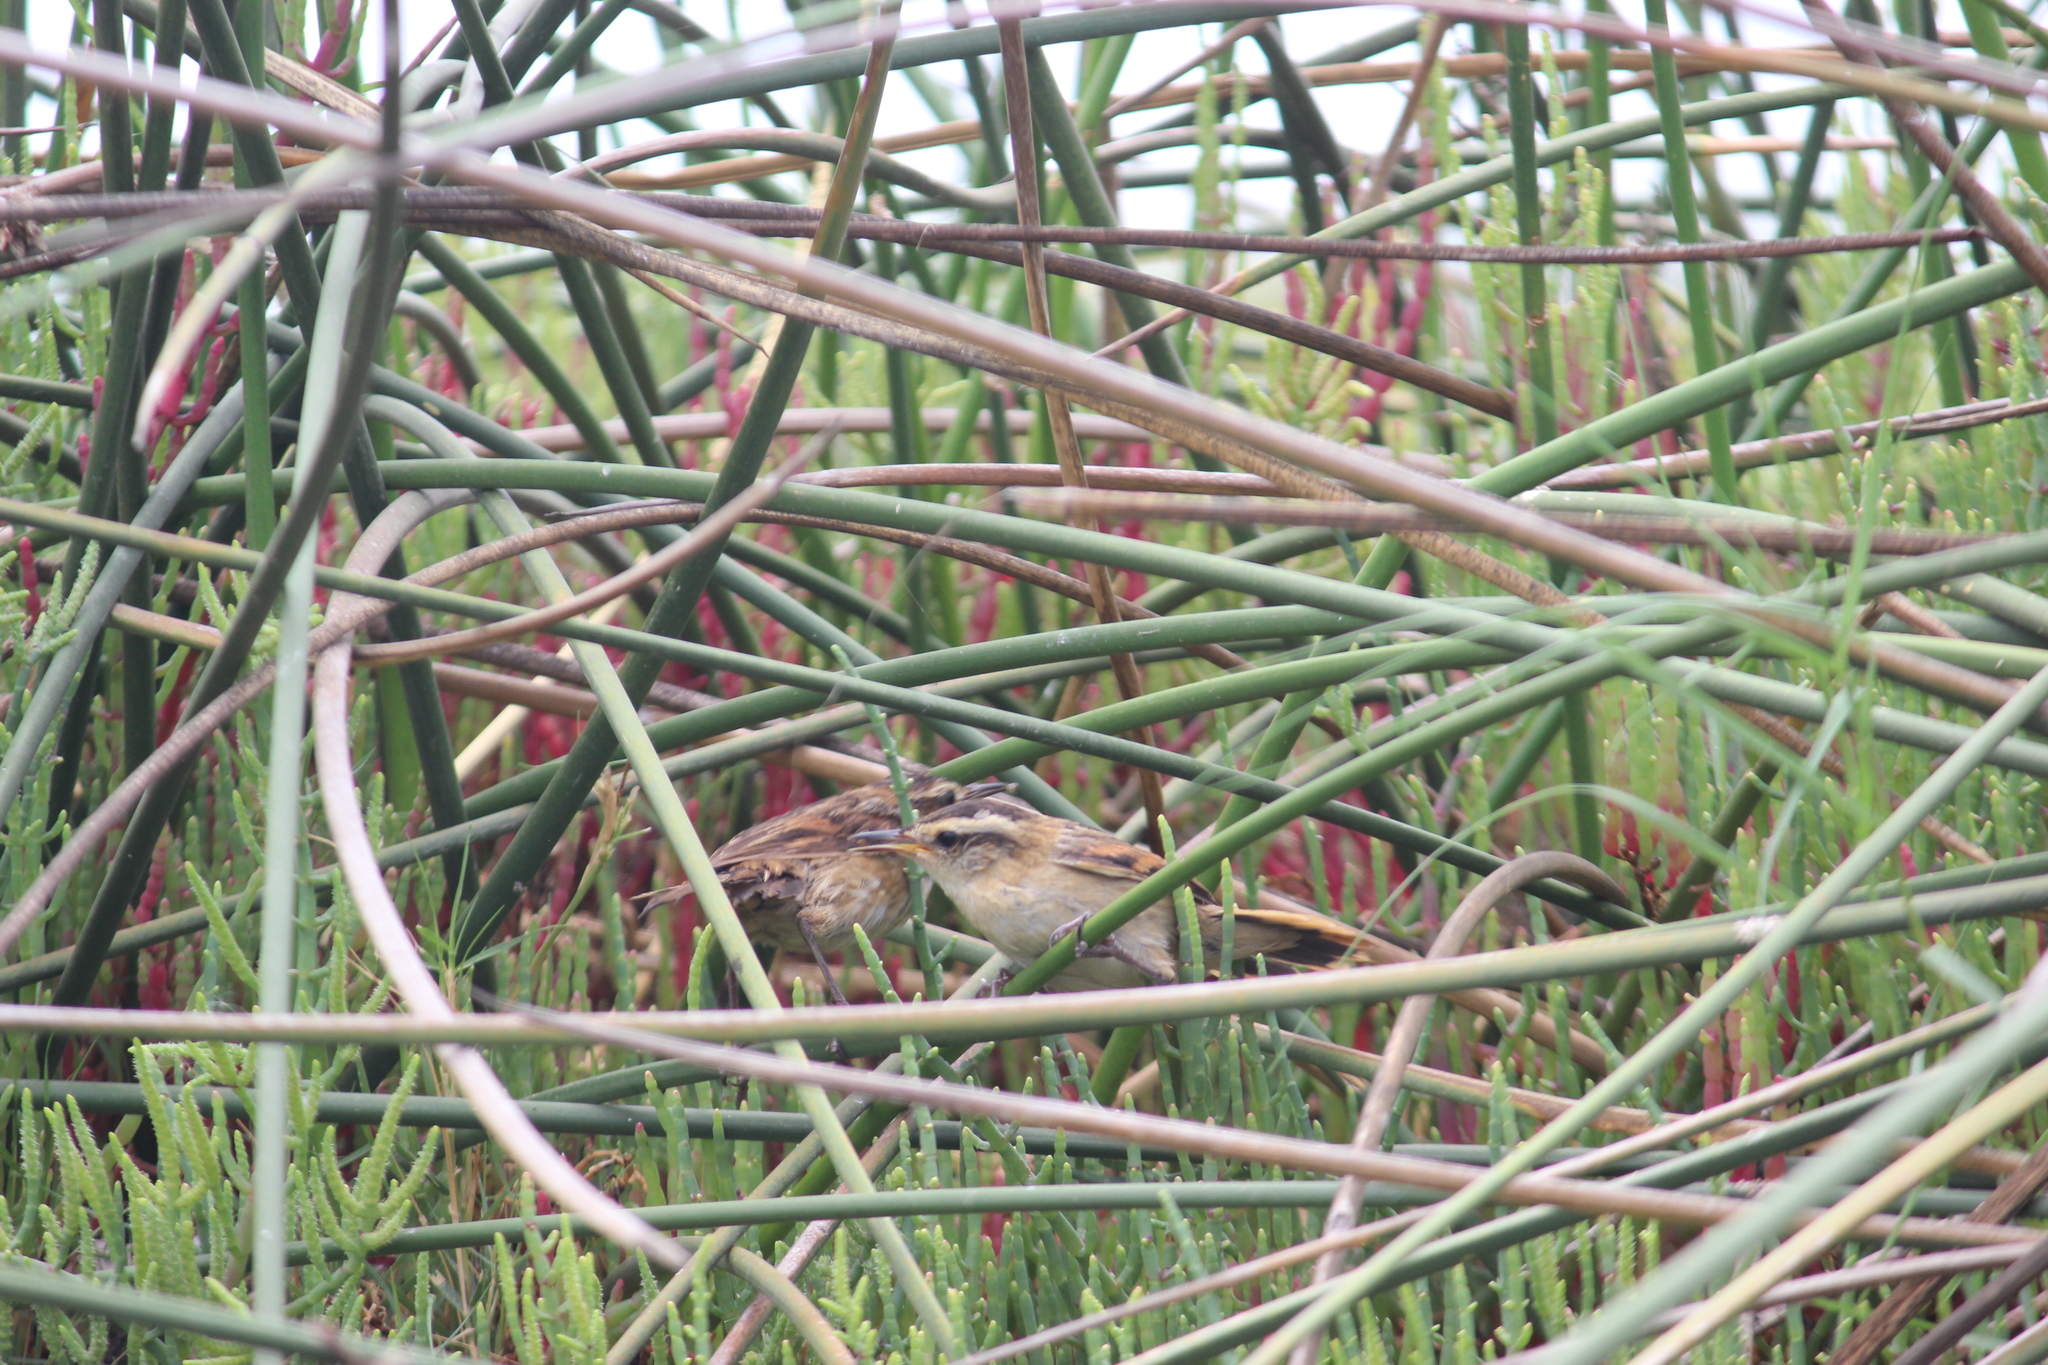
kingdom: Animalia
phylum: Chordata
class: Aves
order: Passeriformes
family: Furnariidae
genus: Phleocryptes
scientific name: Phleocryptes melanops
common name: Wren-like rushbird
